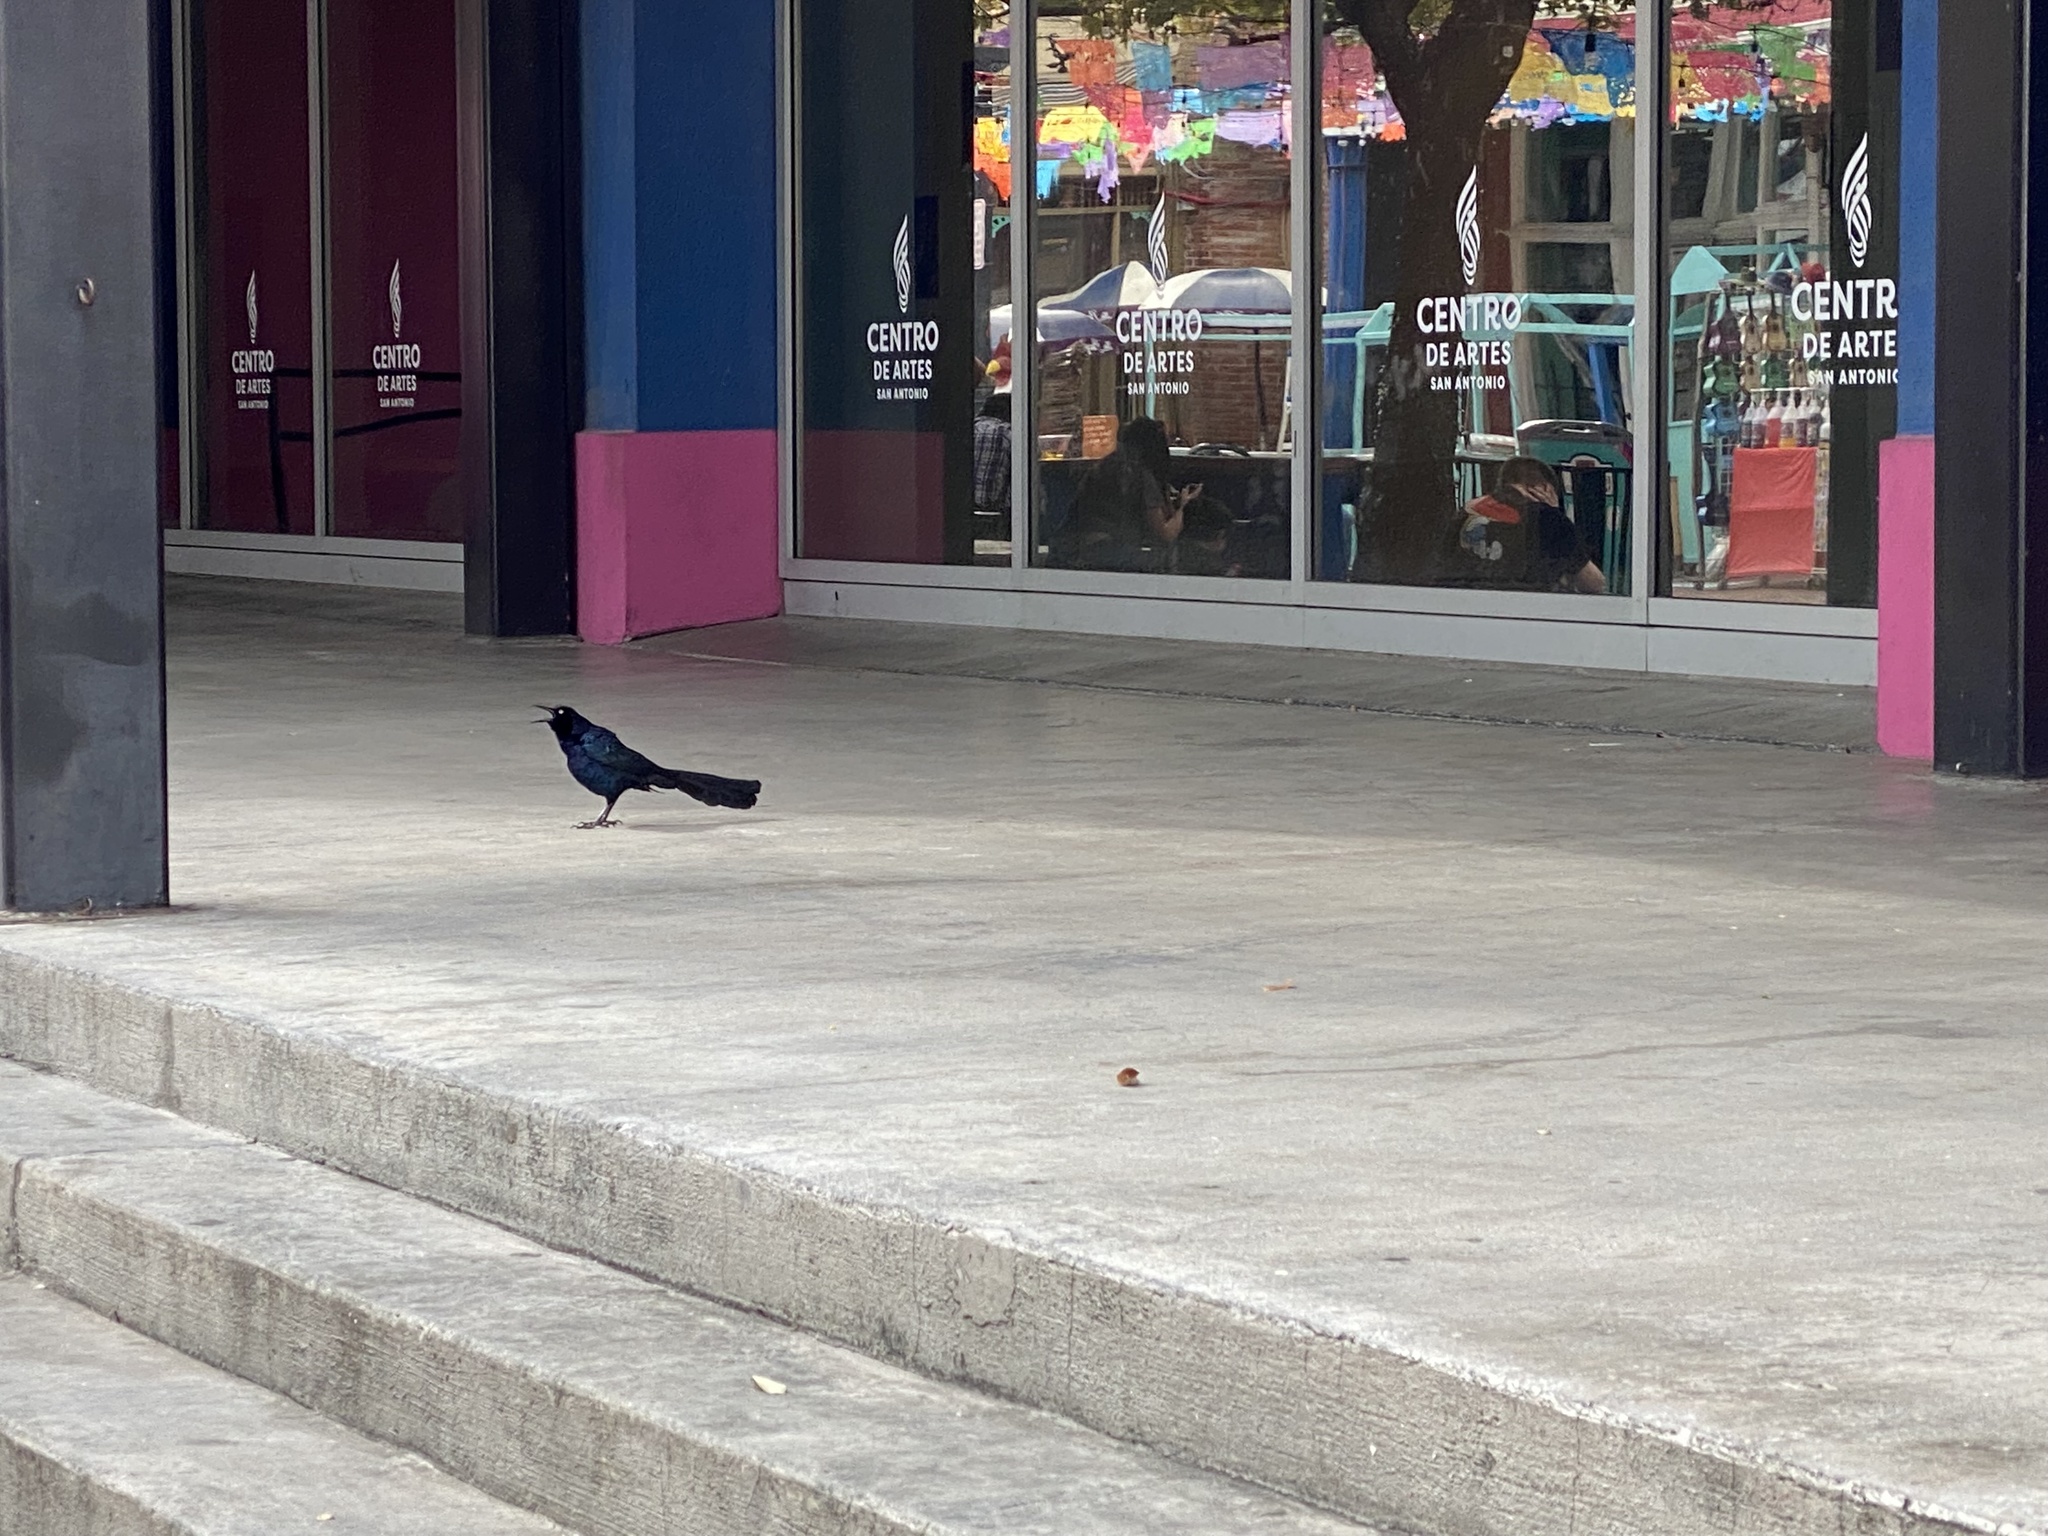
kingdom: Animalia
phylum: Chordata
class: Aves
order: Passeriformes
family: Icteridae
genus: Quiscalus
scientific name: Quiscalus mexicanus
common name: Great-tailed grackle
